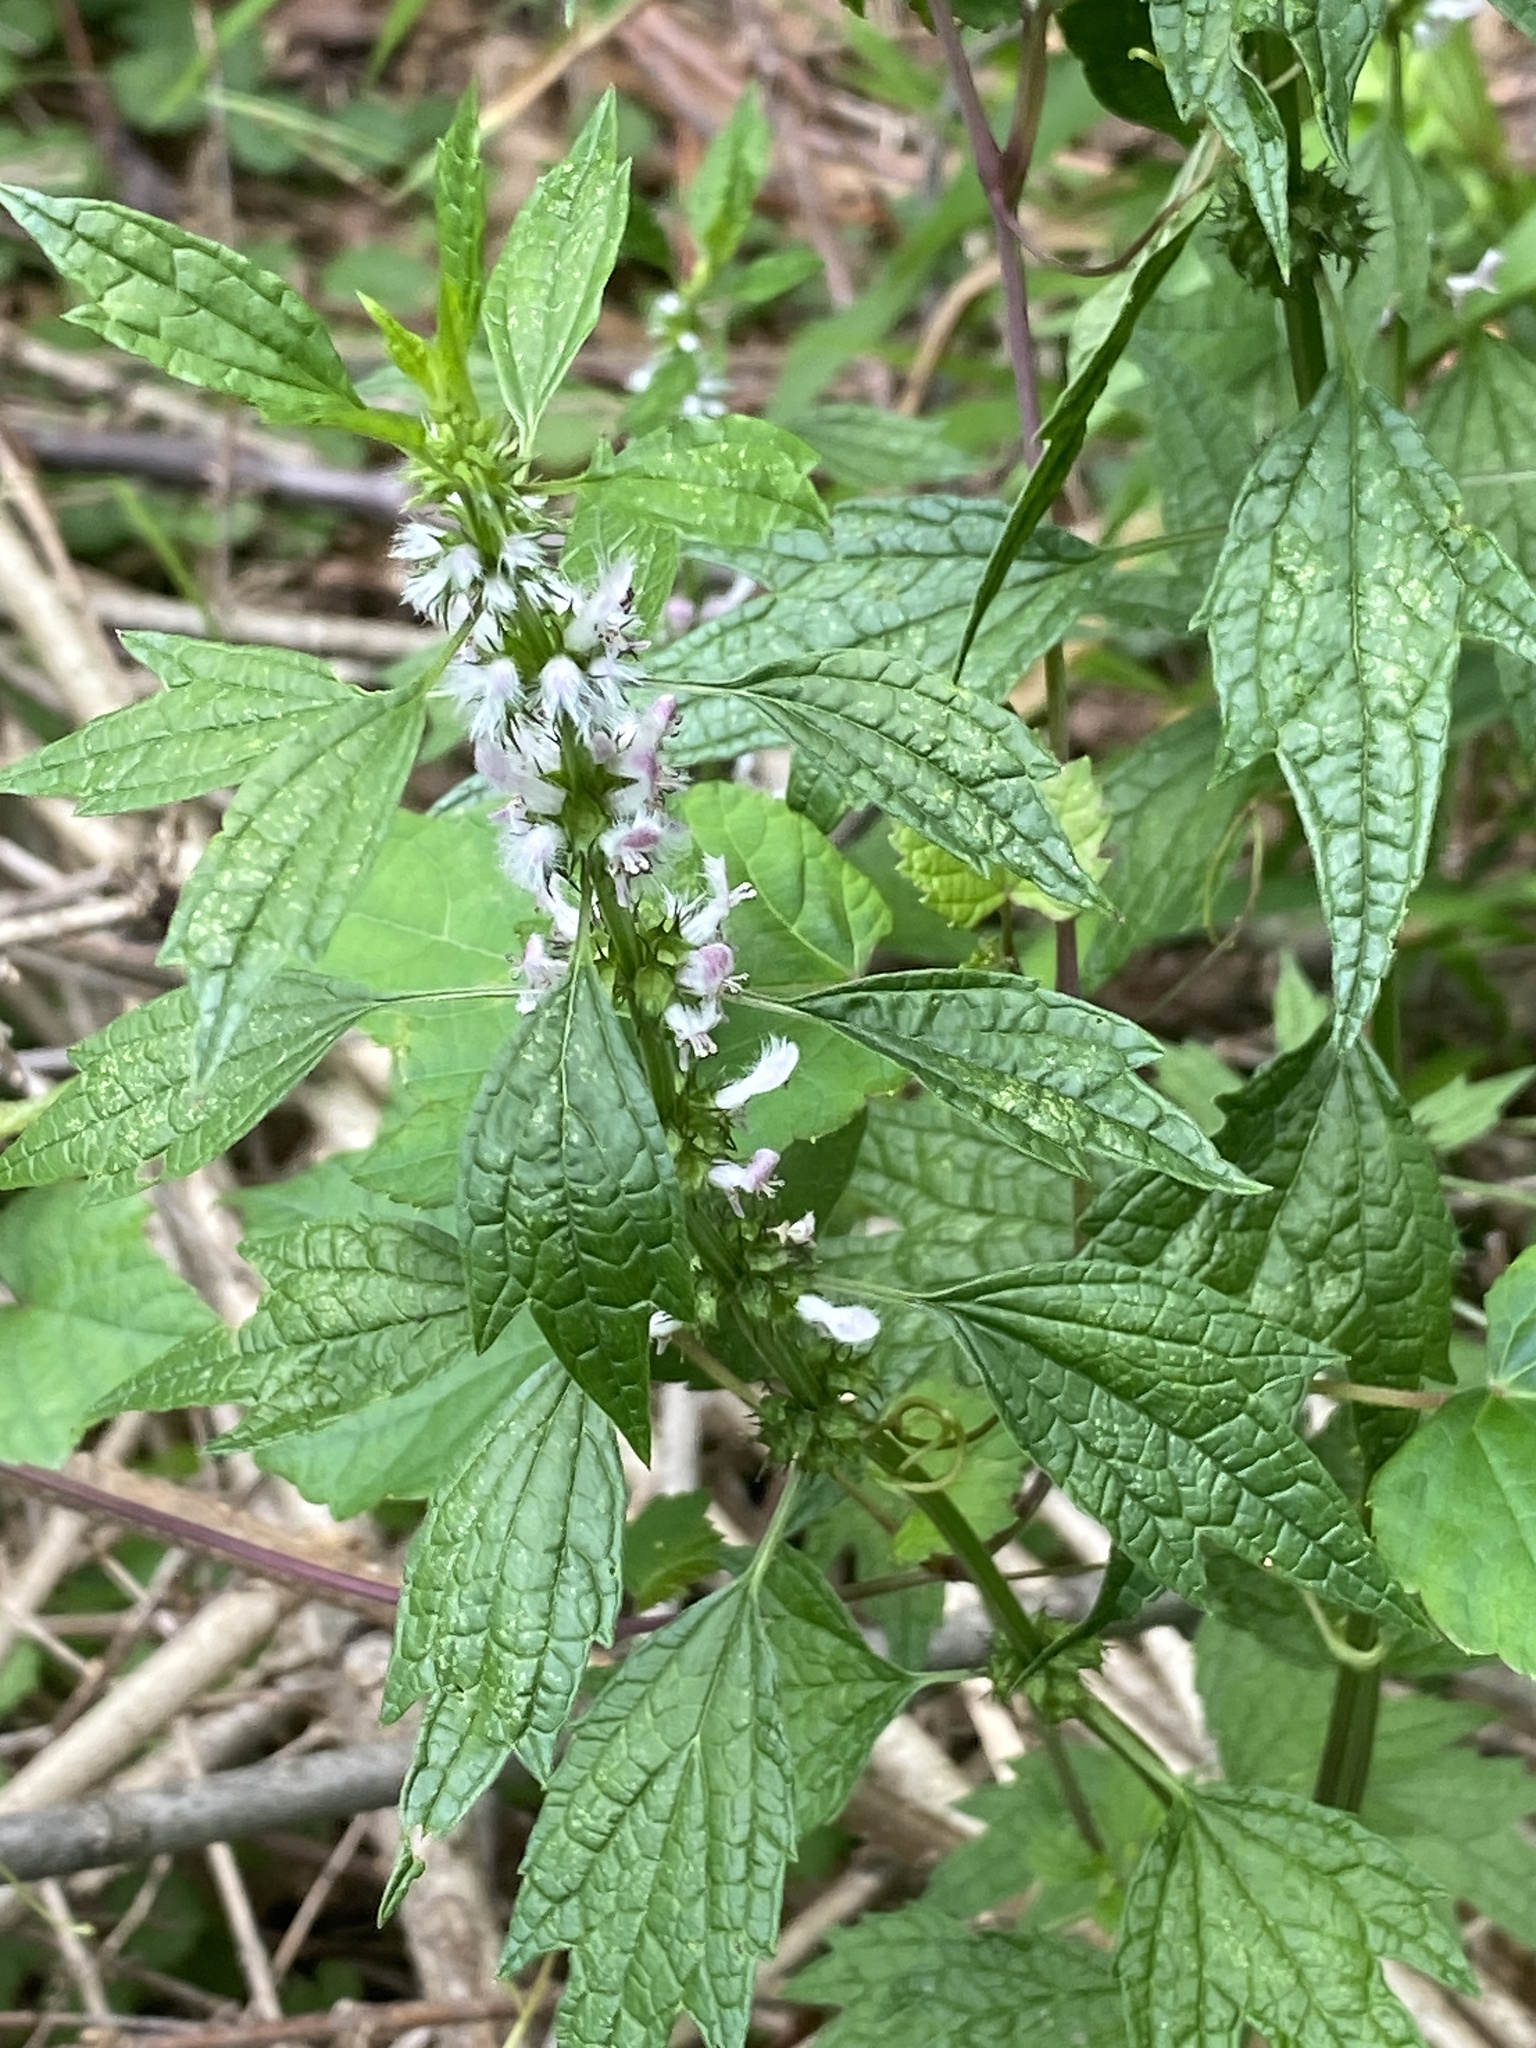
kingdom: Plantae
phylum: Tracheophyta
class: Magnoliopsida
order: Lamiales
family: Lamiaceae
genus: Leonurus
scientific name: Leonurus cardiaca
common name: Motherwort
